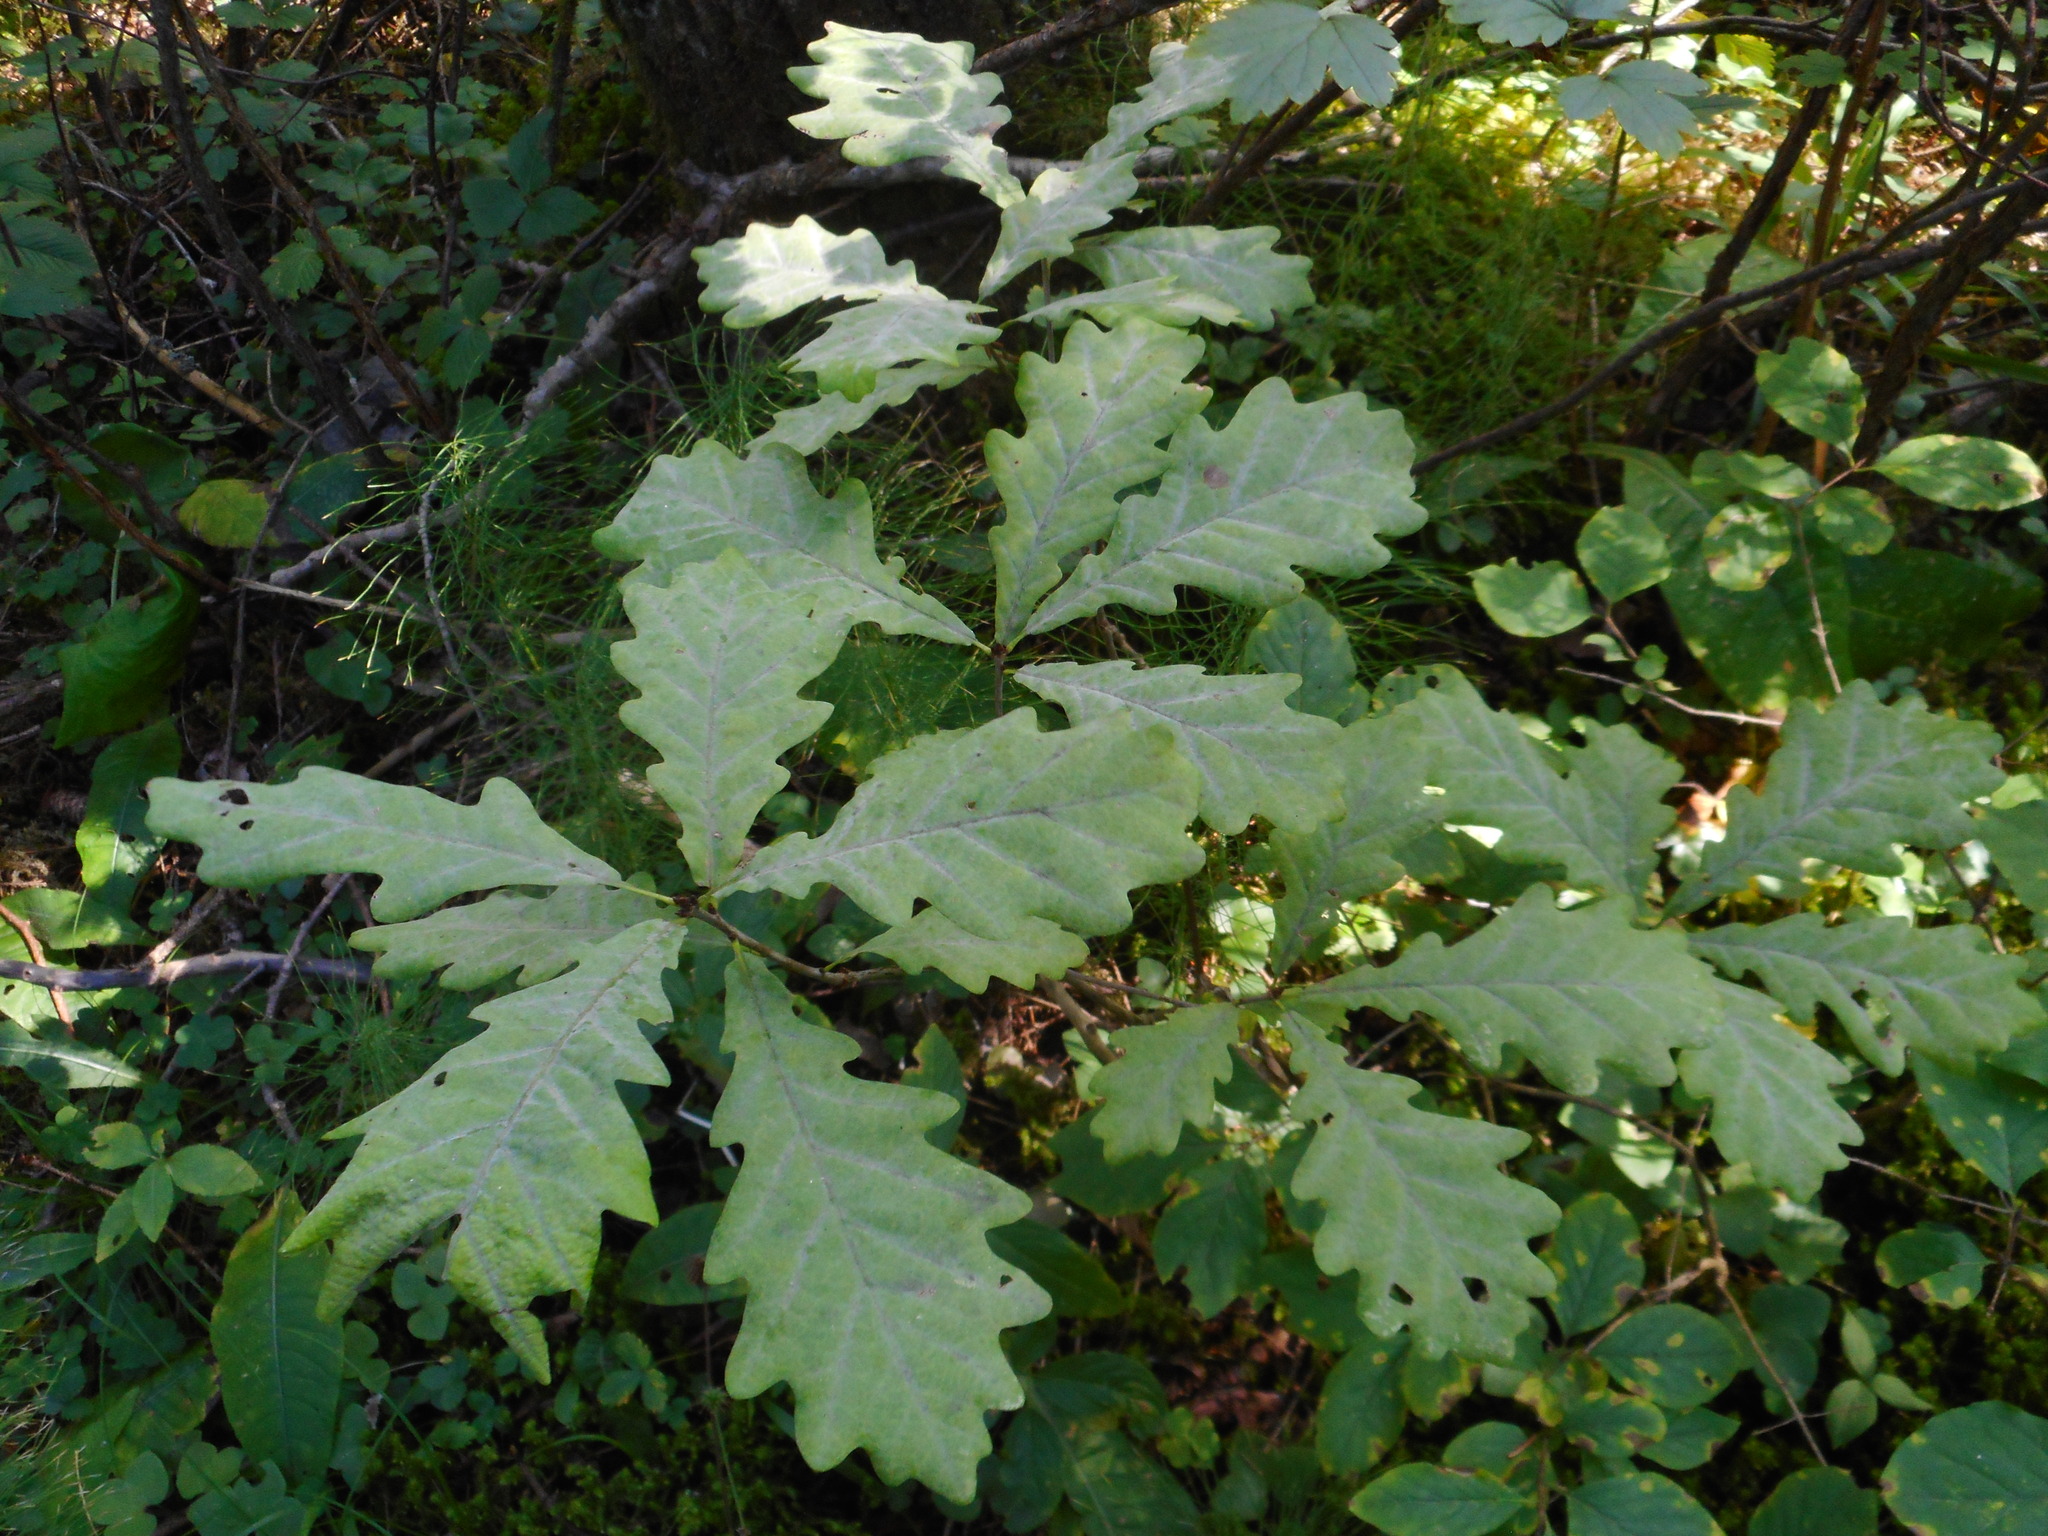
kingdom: Plantae
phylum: Tracheophyta
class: Magnoliopsida
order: Fagales
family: Fagaceae
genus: Quercus
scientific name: Quercus robur
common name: Pedunculate oak
